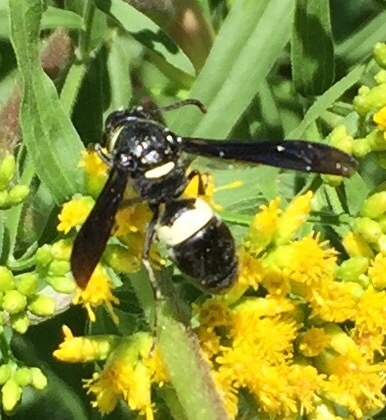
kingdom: Animalia
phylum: Arthropoda
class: Insecta
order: Hymenoptera
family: Eumenidae
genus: Monobia
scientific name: Monobia quadridens
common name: Four-toothed mason wasp
